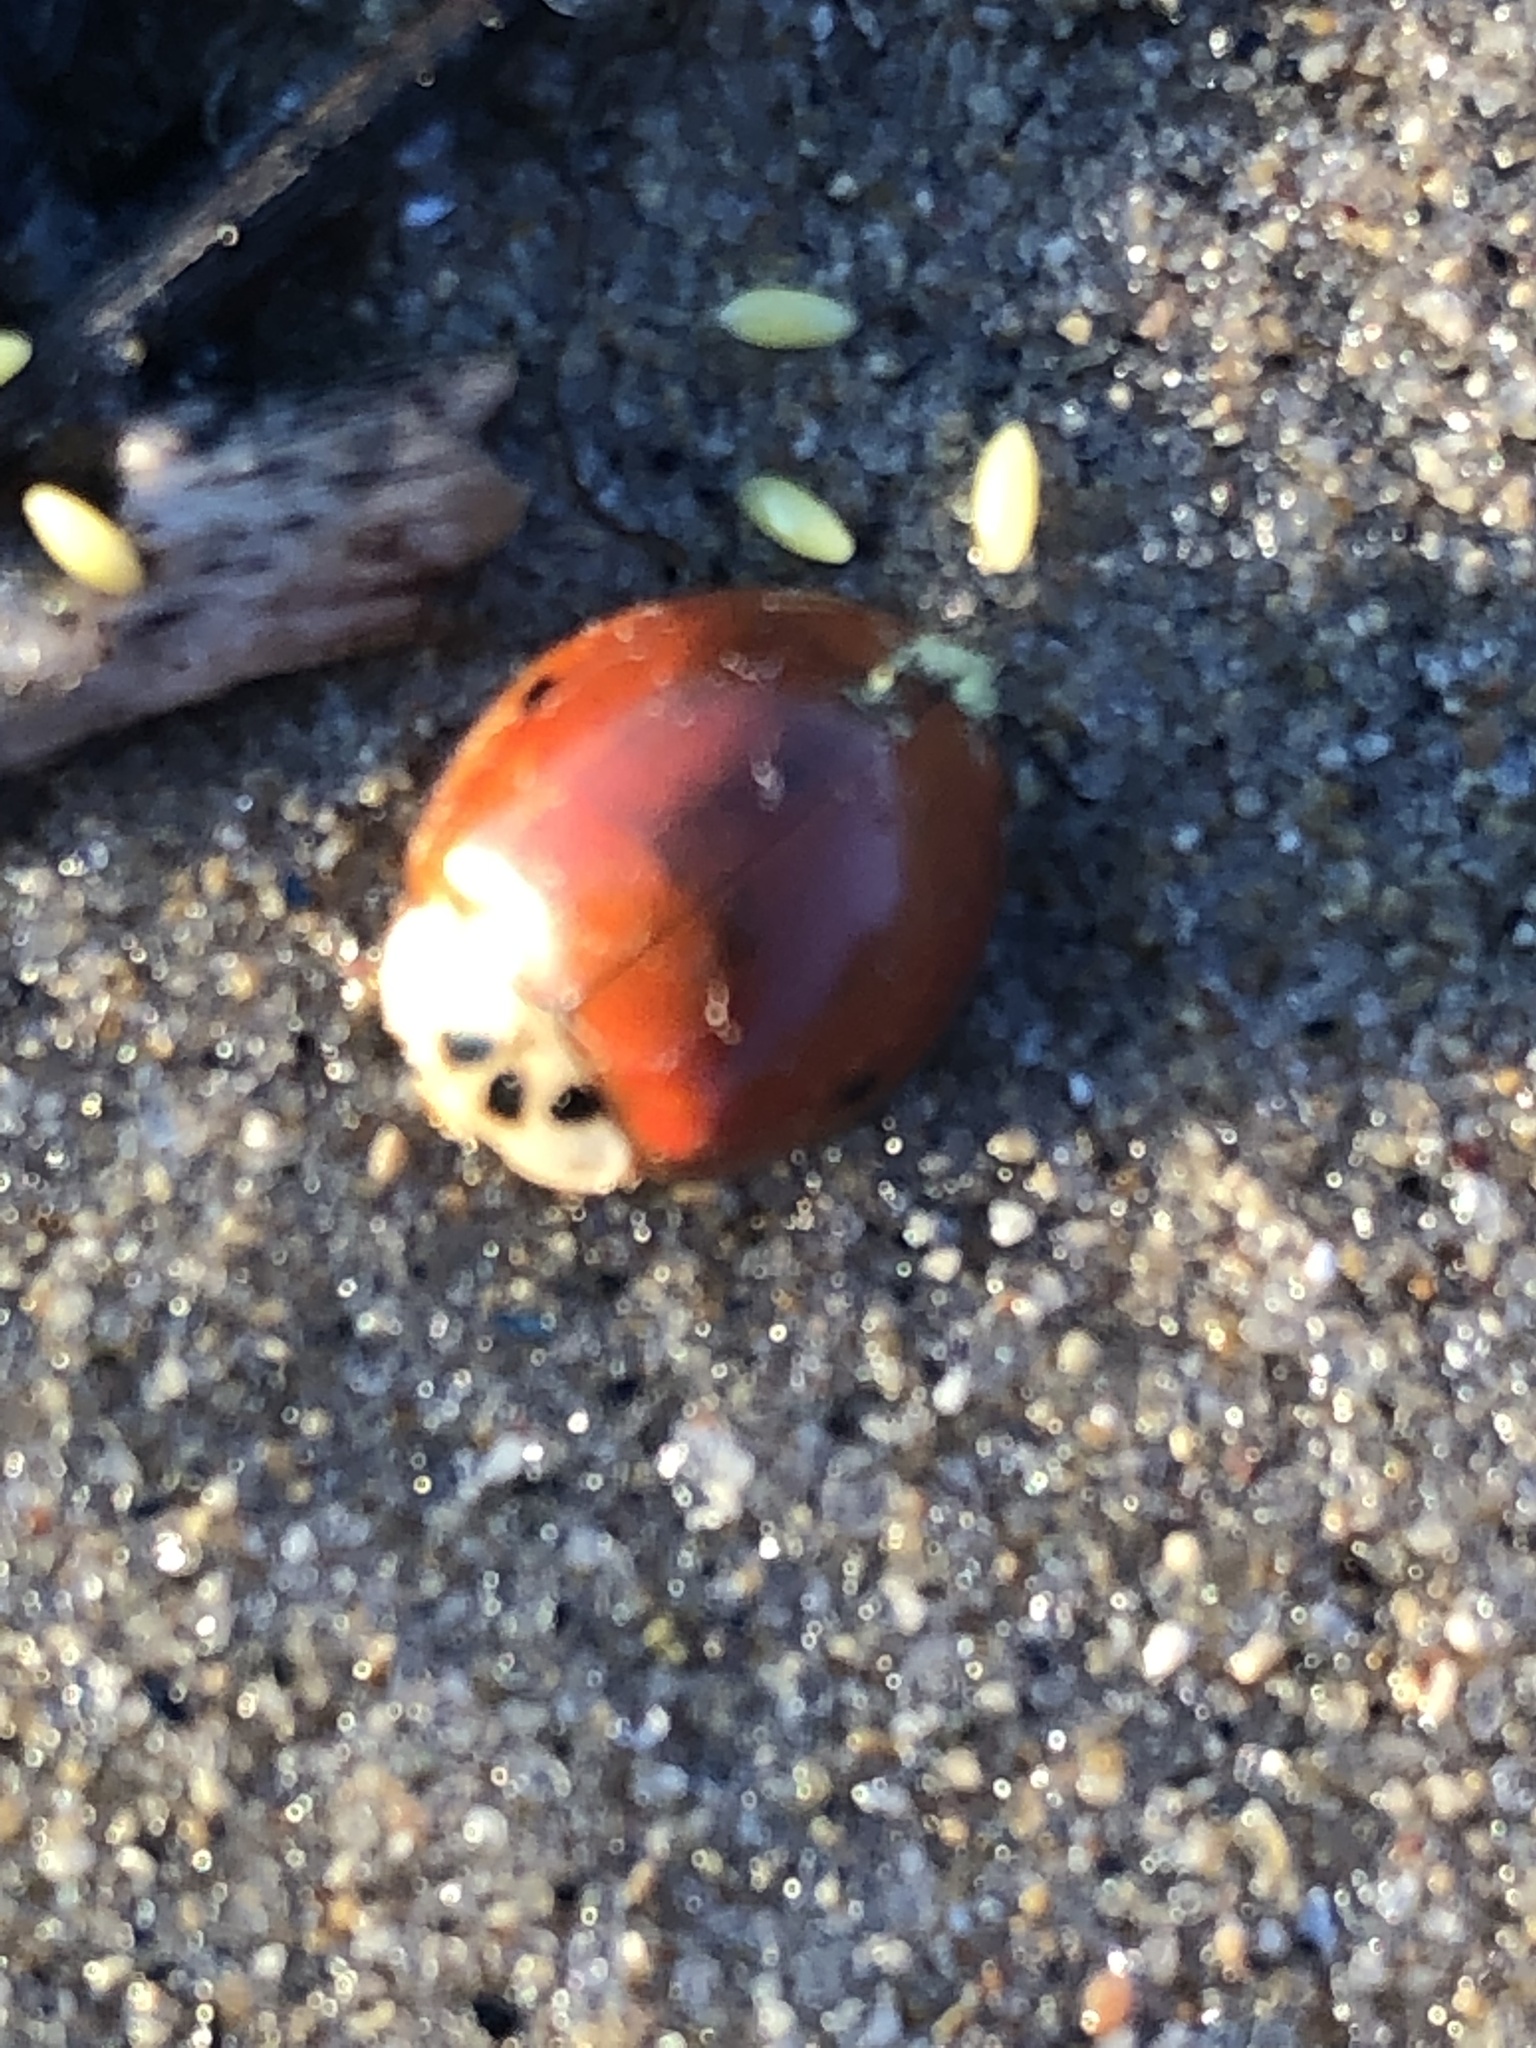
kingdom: Animalia
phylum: Arthropoda
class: Insecta
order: Coleoptera
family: Coccinellidae
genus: Harmonia
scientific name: Harmonia axyridis
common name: Harlequin ladybird
